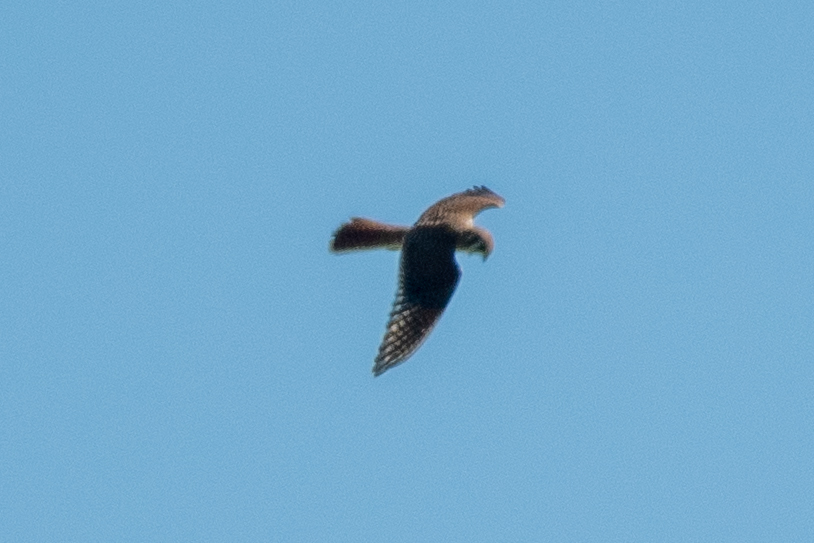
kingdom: Animalia
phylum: Chordata
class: Aves
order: Falconiformes
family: Falconidae
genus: Falco
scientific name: Falco sparverius
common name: American kestrel
